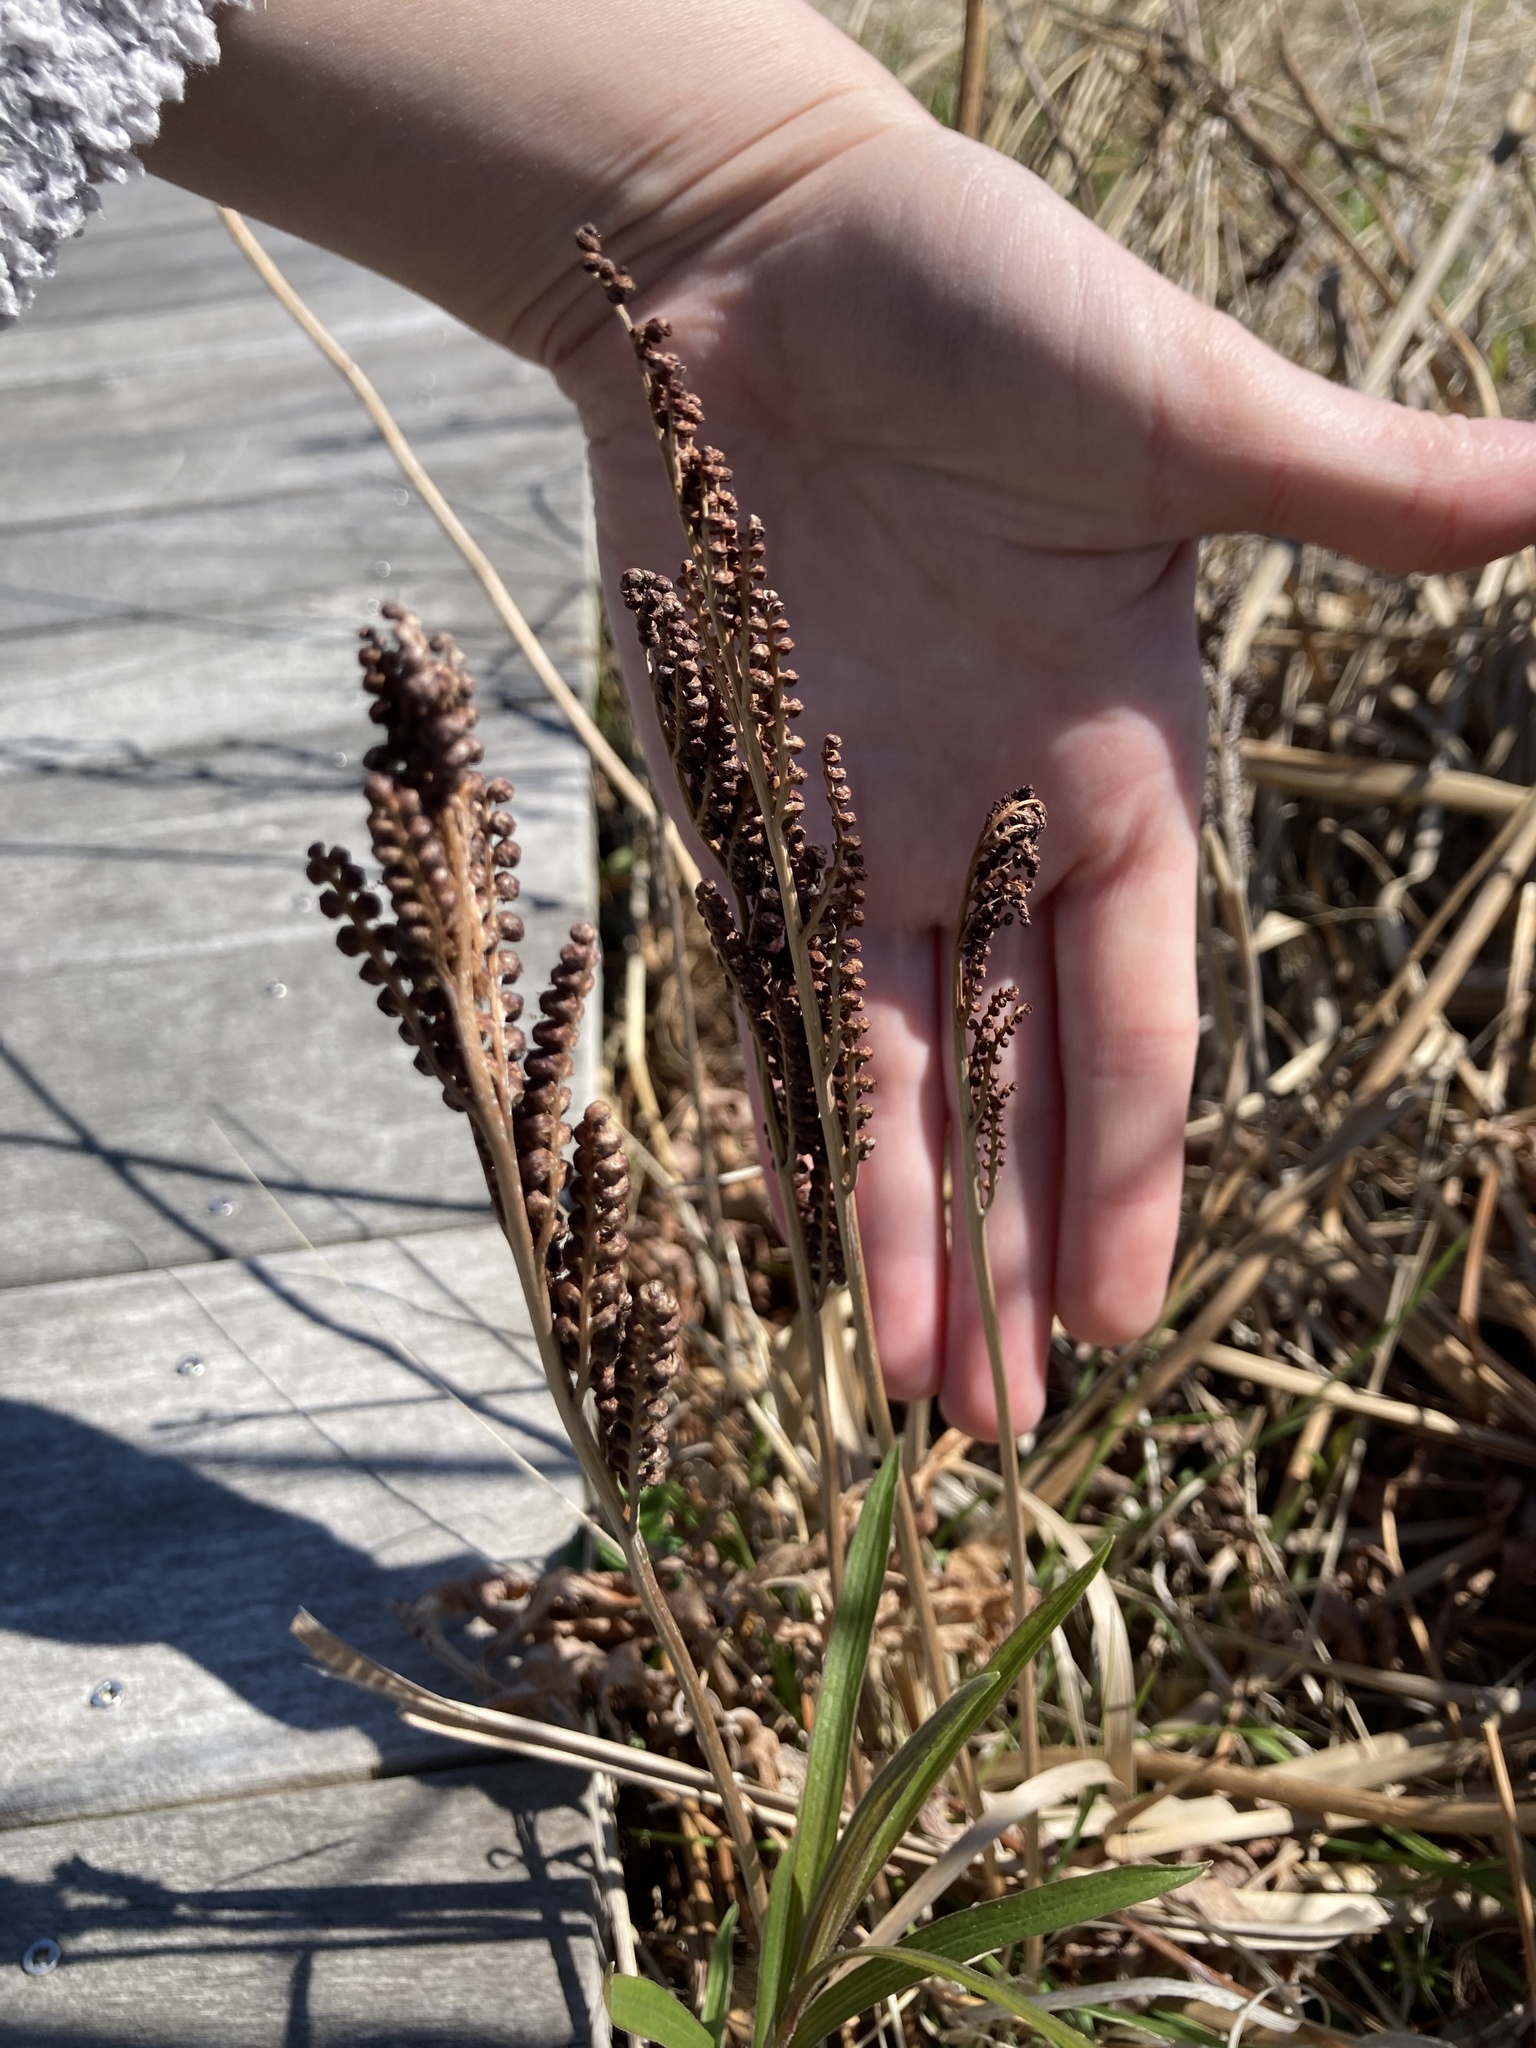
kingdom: Plantae
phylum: Tracheophyta
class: Polypodiopsida
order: Polypodiales
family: Onocleaceae
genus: Onoclea
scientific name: Onoclea sensibilis
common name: Sensitive fern
